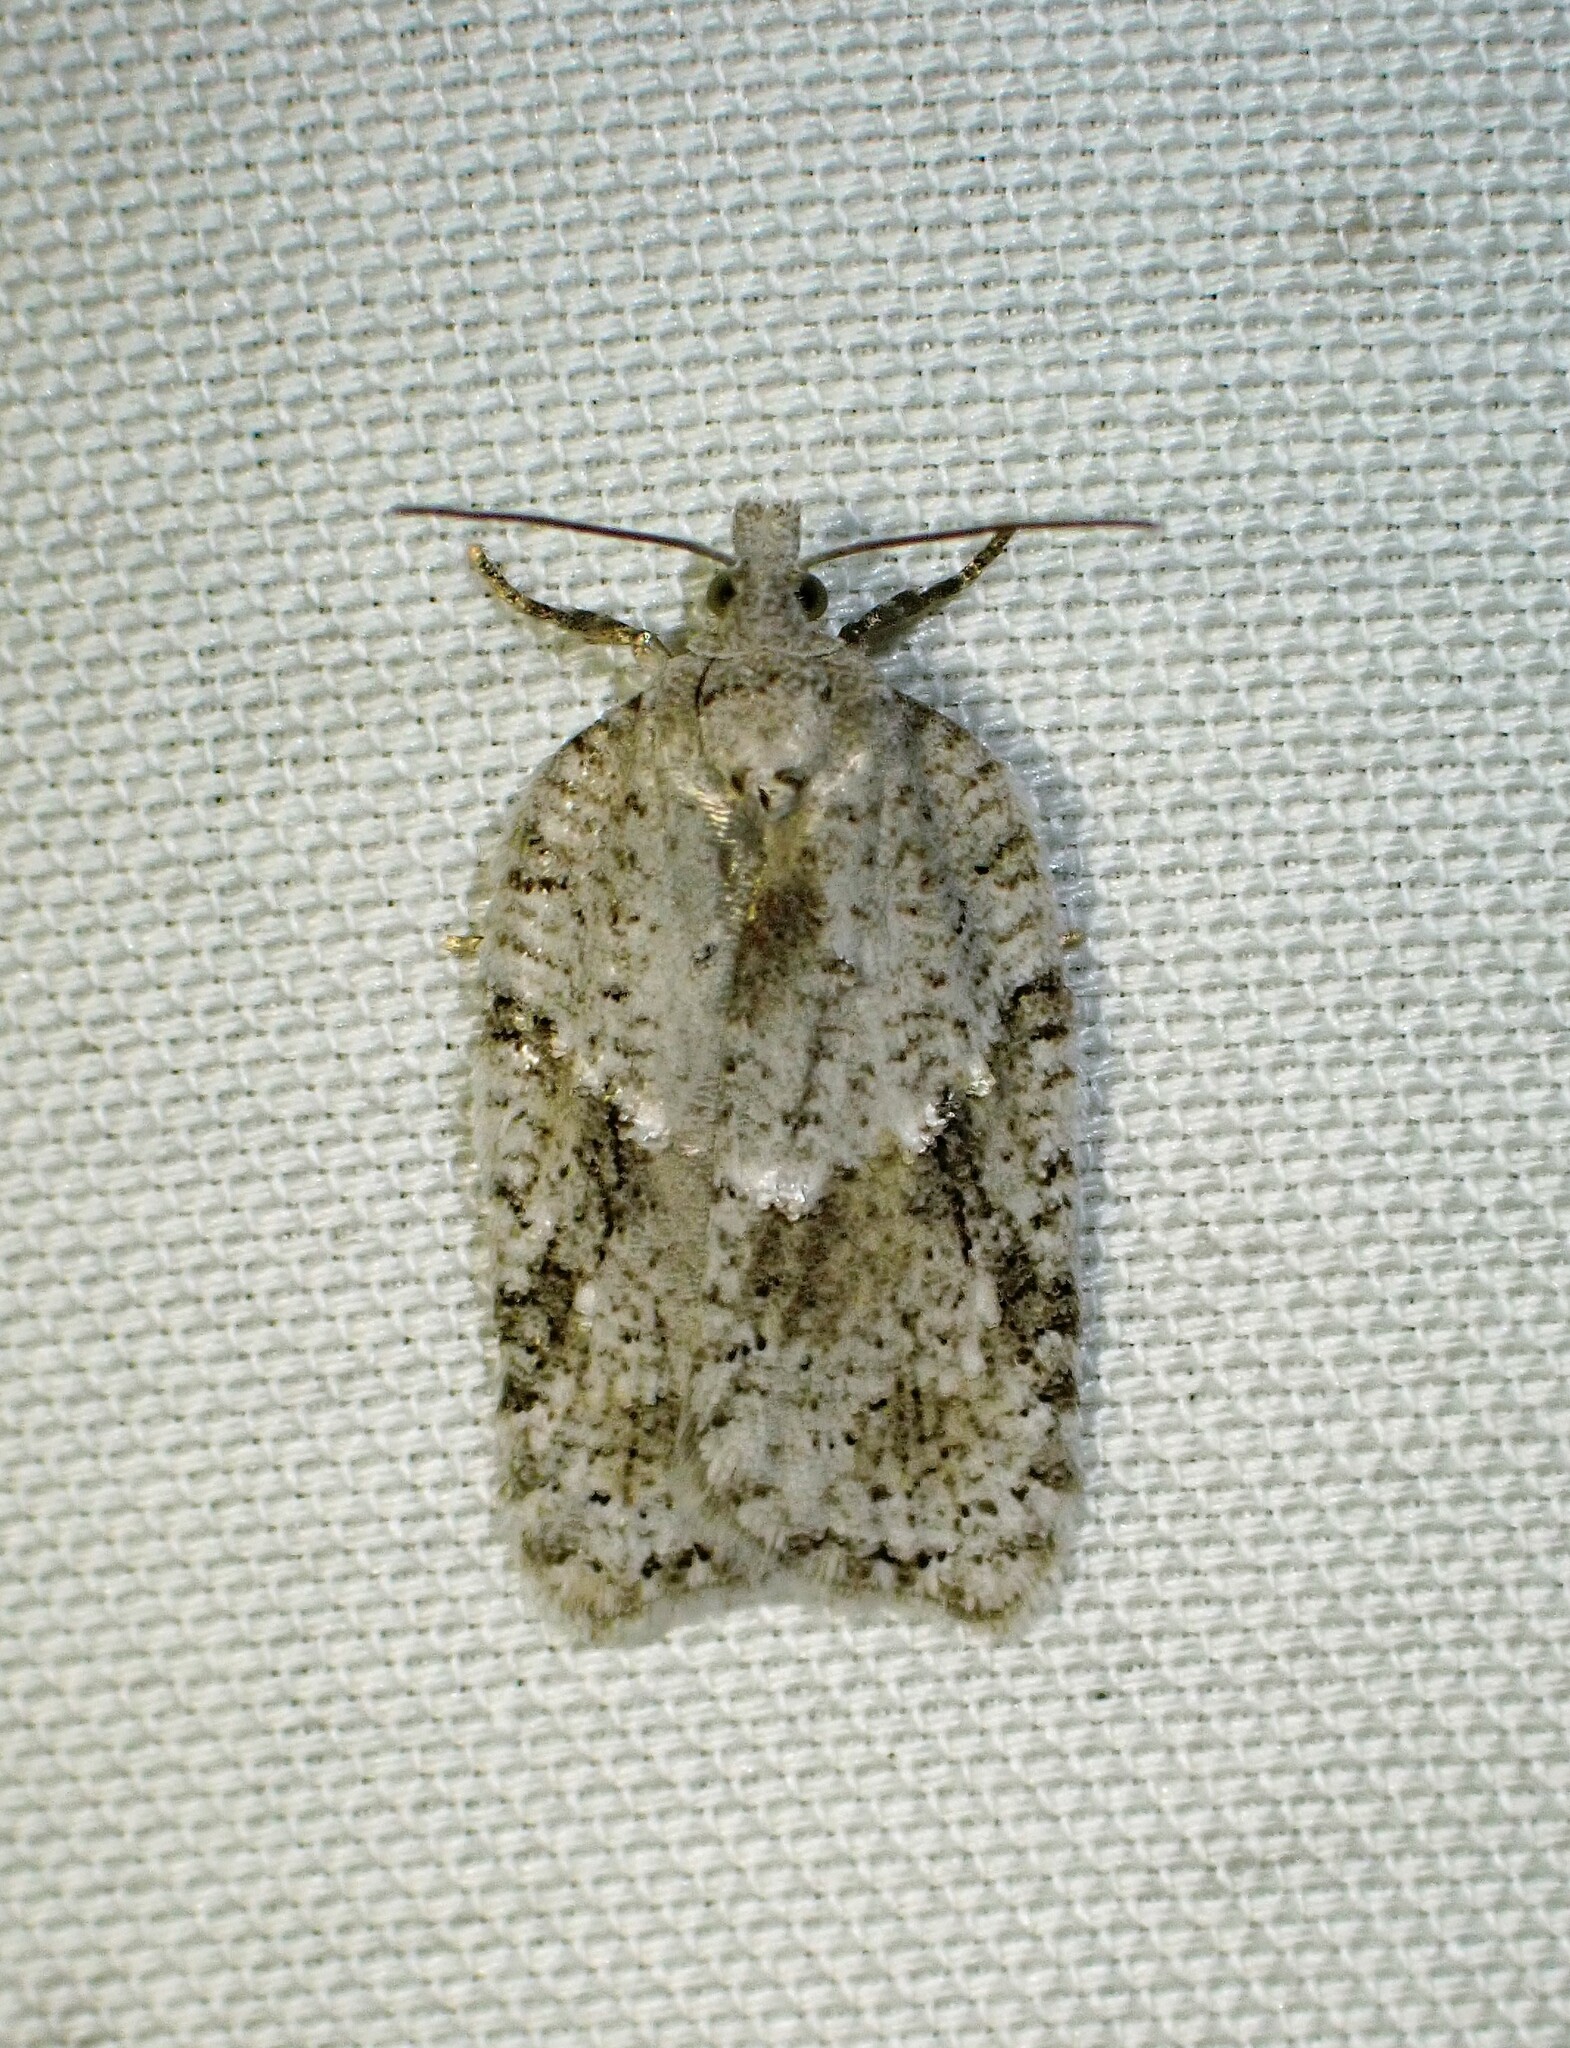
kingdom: Animalia
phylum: Arthropoda
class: Insecta
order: Lepidoptera
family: Tortricidae
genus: Acleris
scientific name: Acleris placidana
